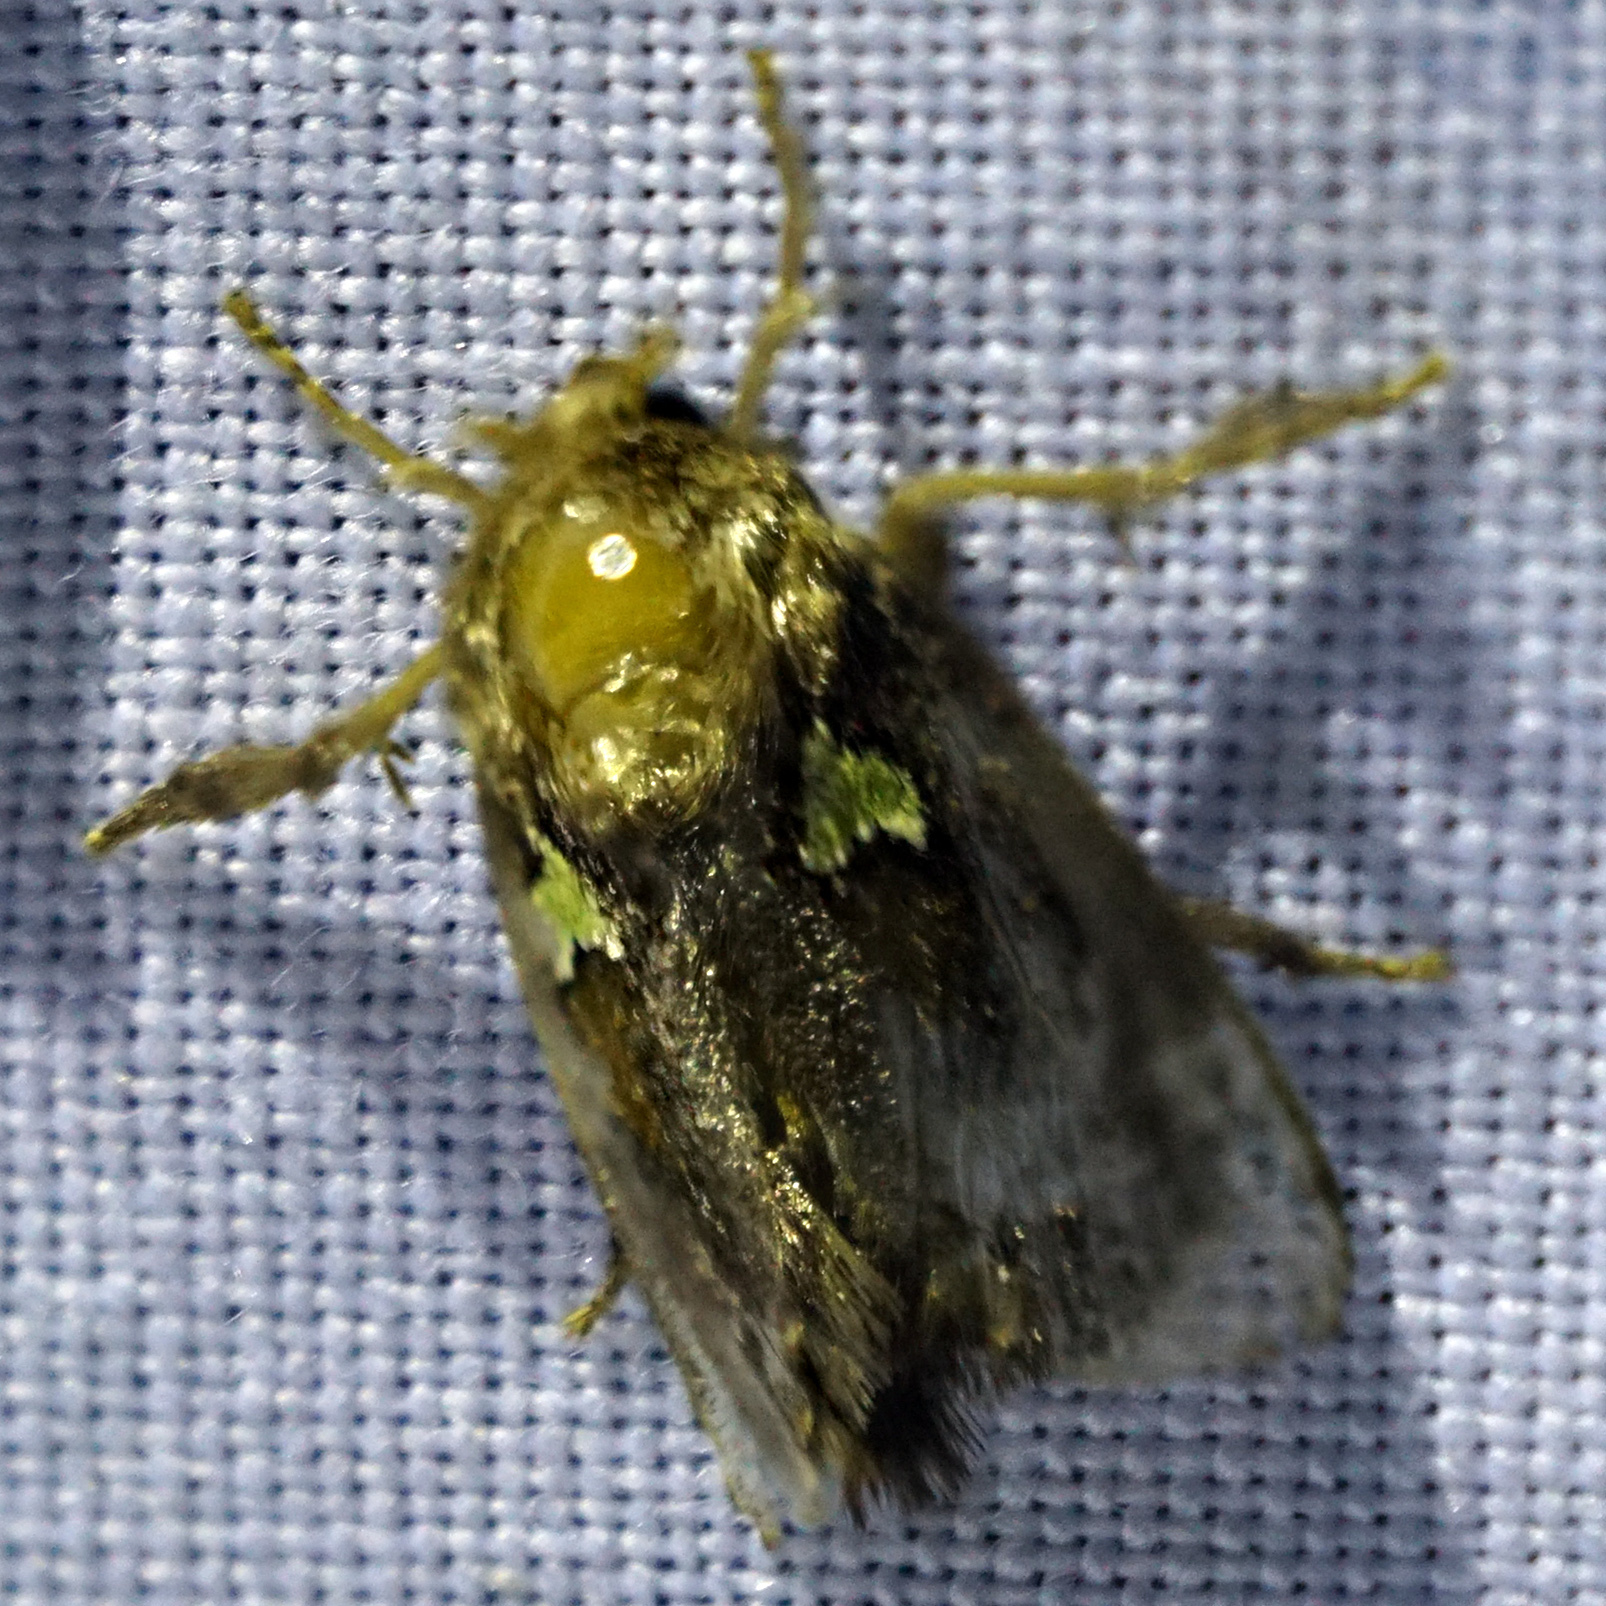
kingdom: Animalia
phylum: Arthropoda
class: Insecta
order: Lepidoptera
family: Limacodidae
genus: Euclea
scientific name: Euclea delphinii
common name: Spiny oak-slug moth
